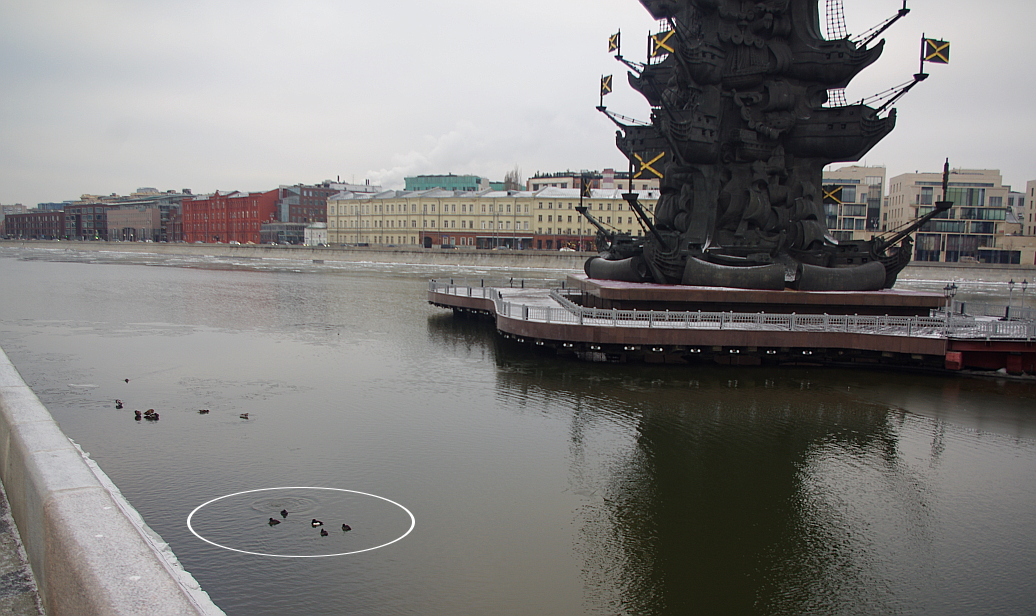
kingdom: Animalia
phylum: Chordata
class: Aves
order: Anseriformes
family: Anatidae
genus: Aythya
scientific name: Aythya fuligula
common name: Tufted duck
